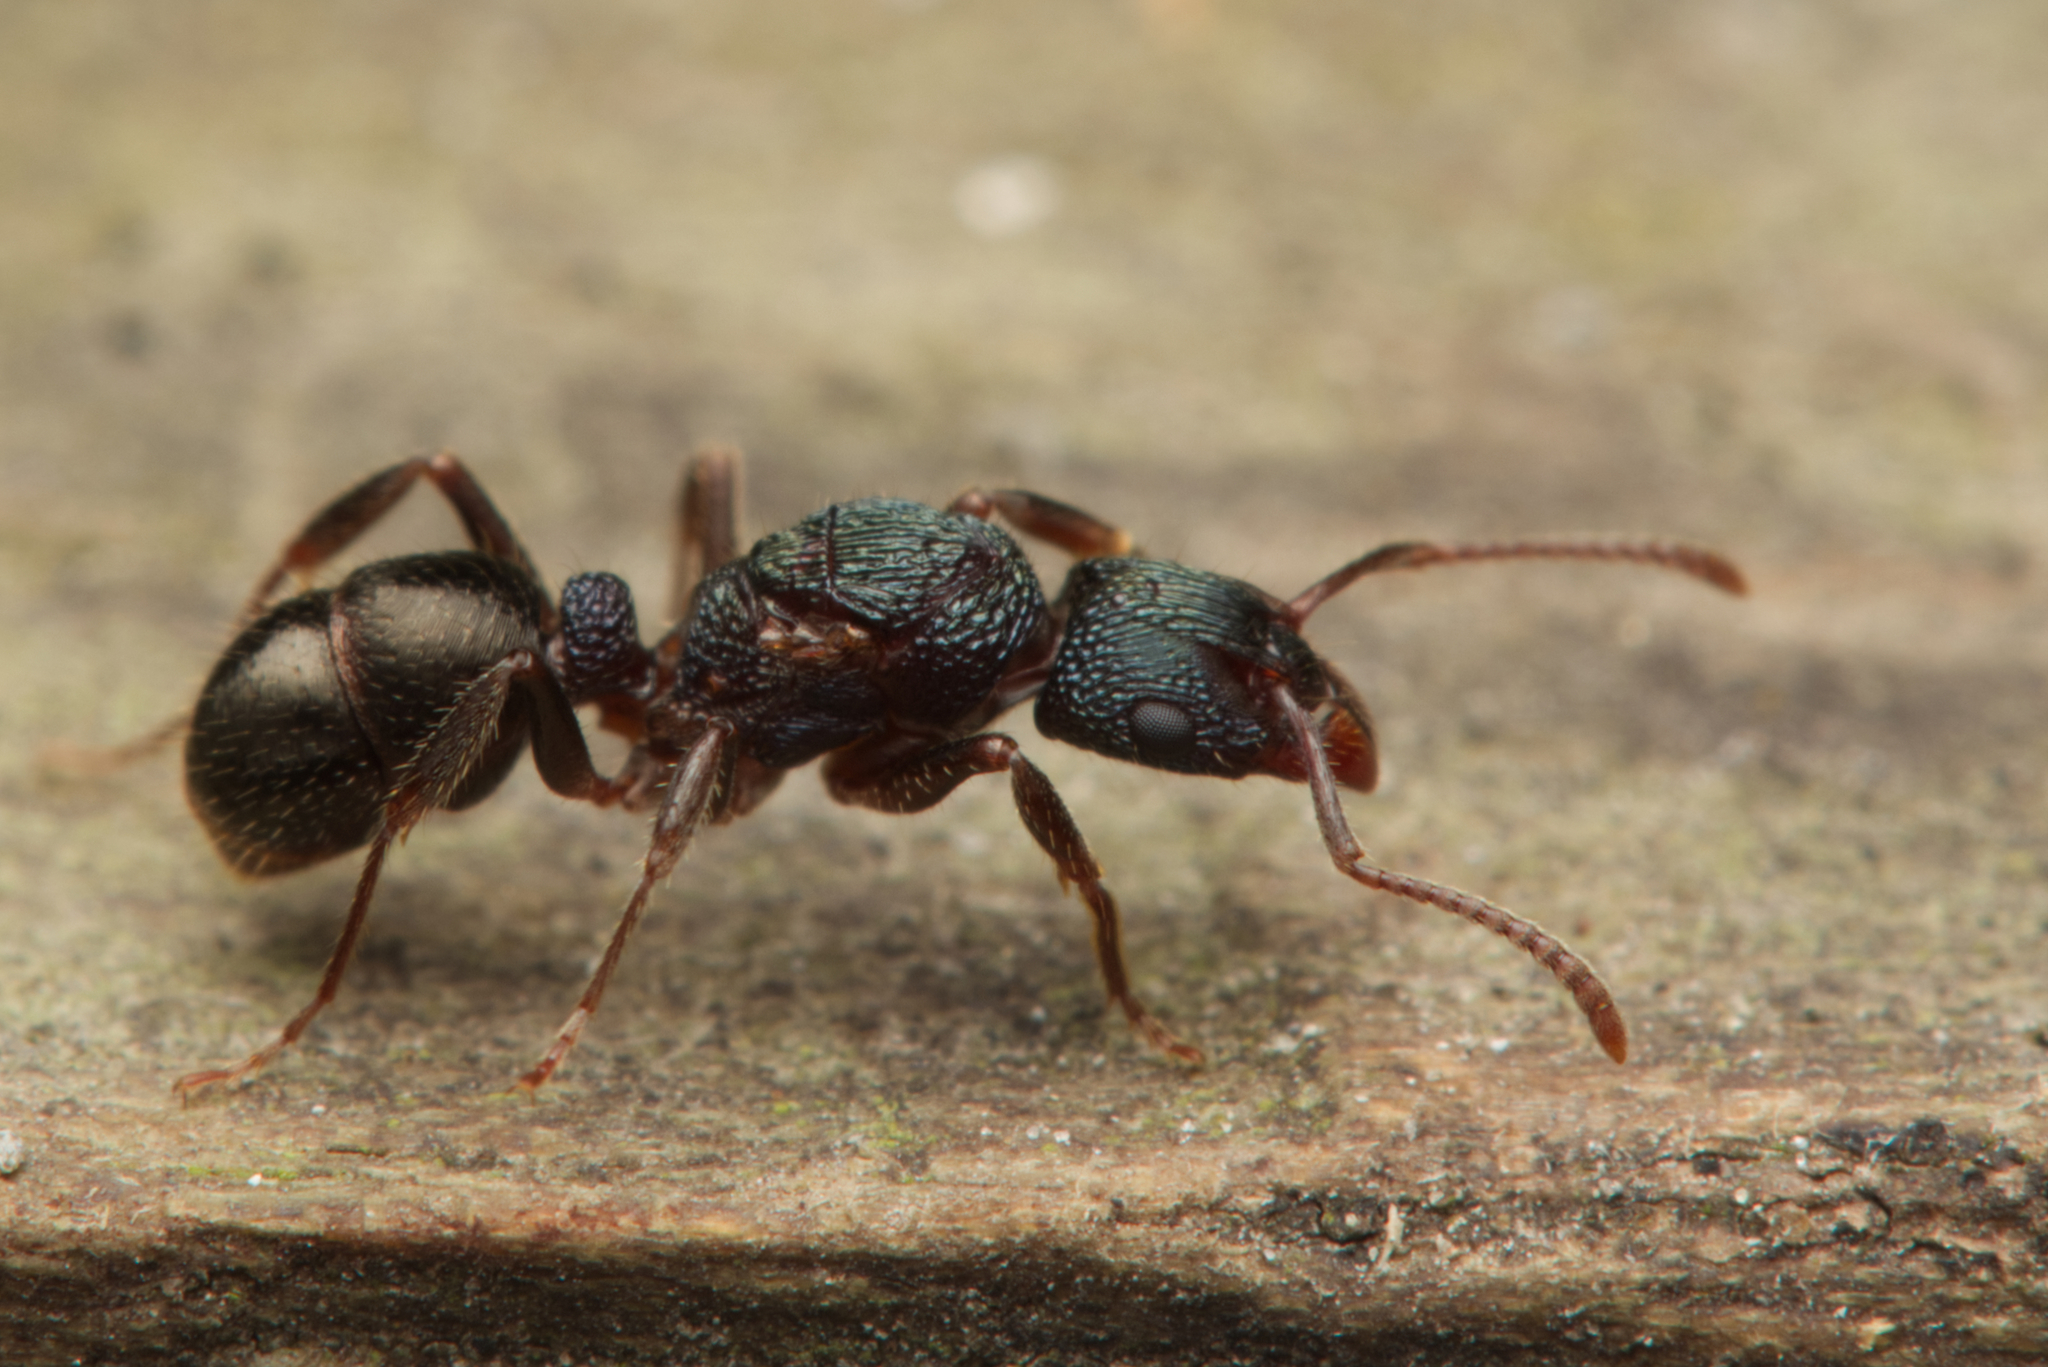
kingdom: Animalia
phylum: Arthropoda
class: Insecta
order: Hymenoptera
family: Formicidae
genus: Rhytidoponera
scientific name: Rhytidoponera victoriae
